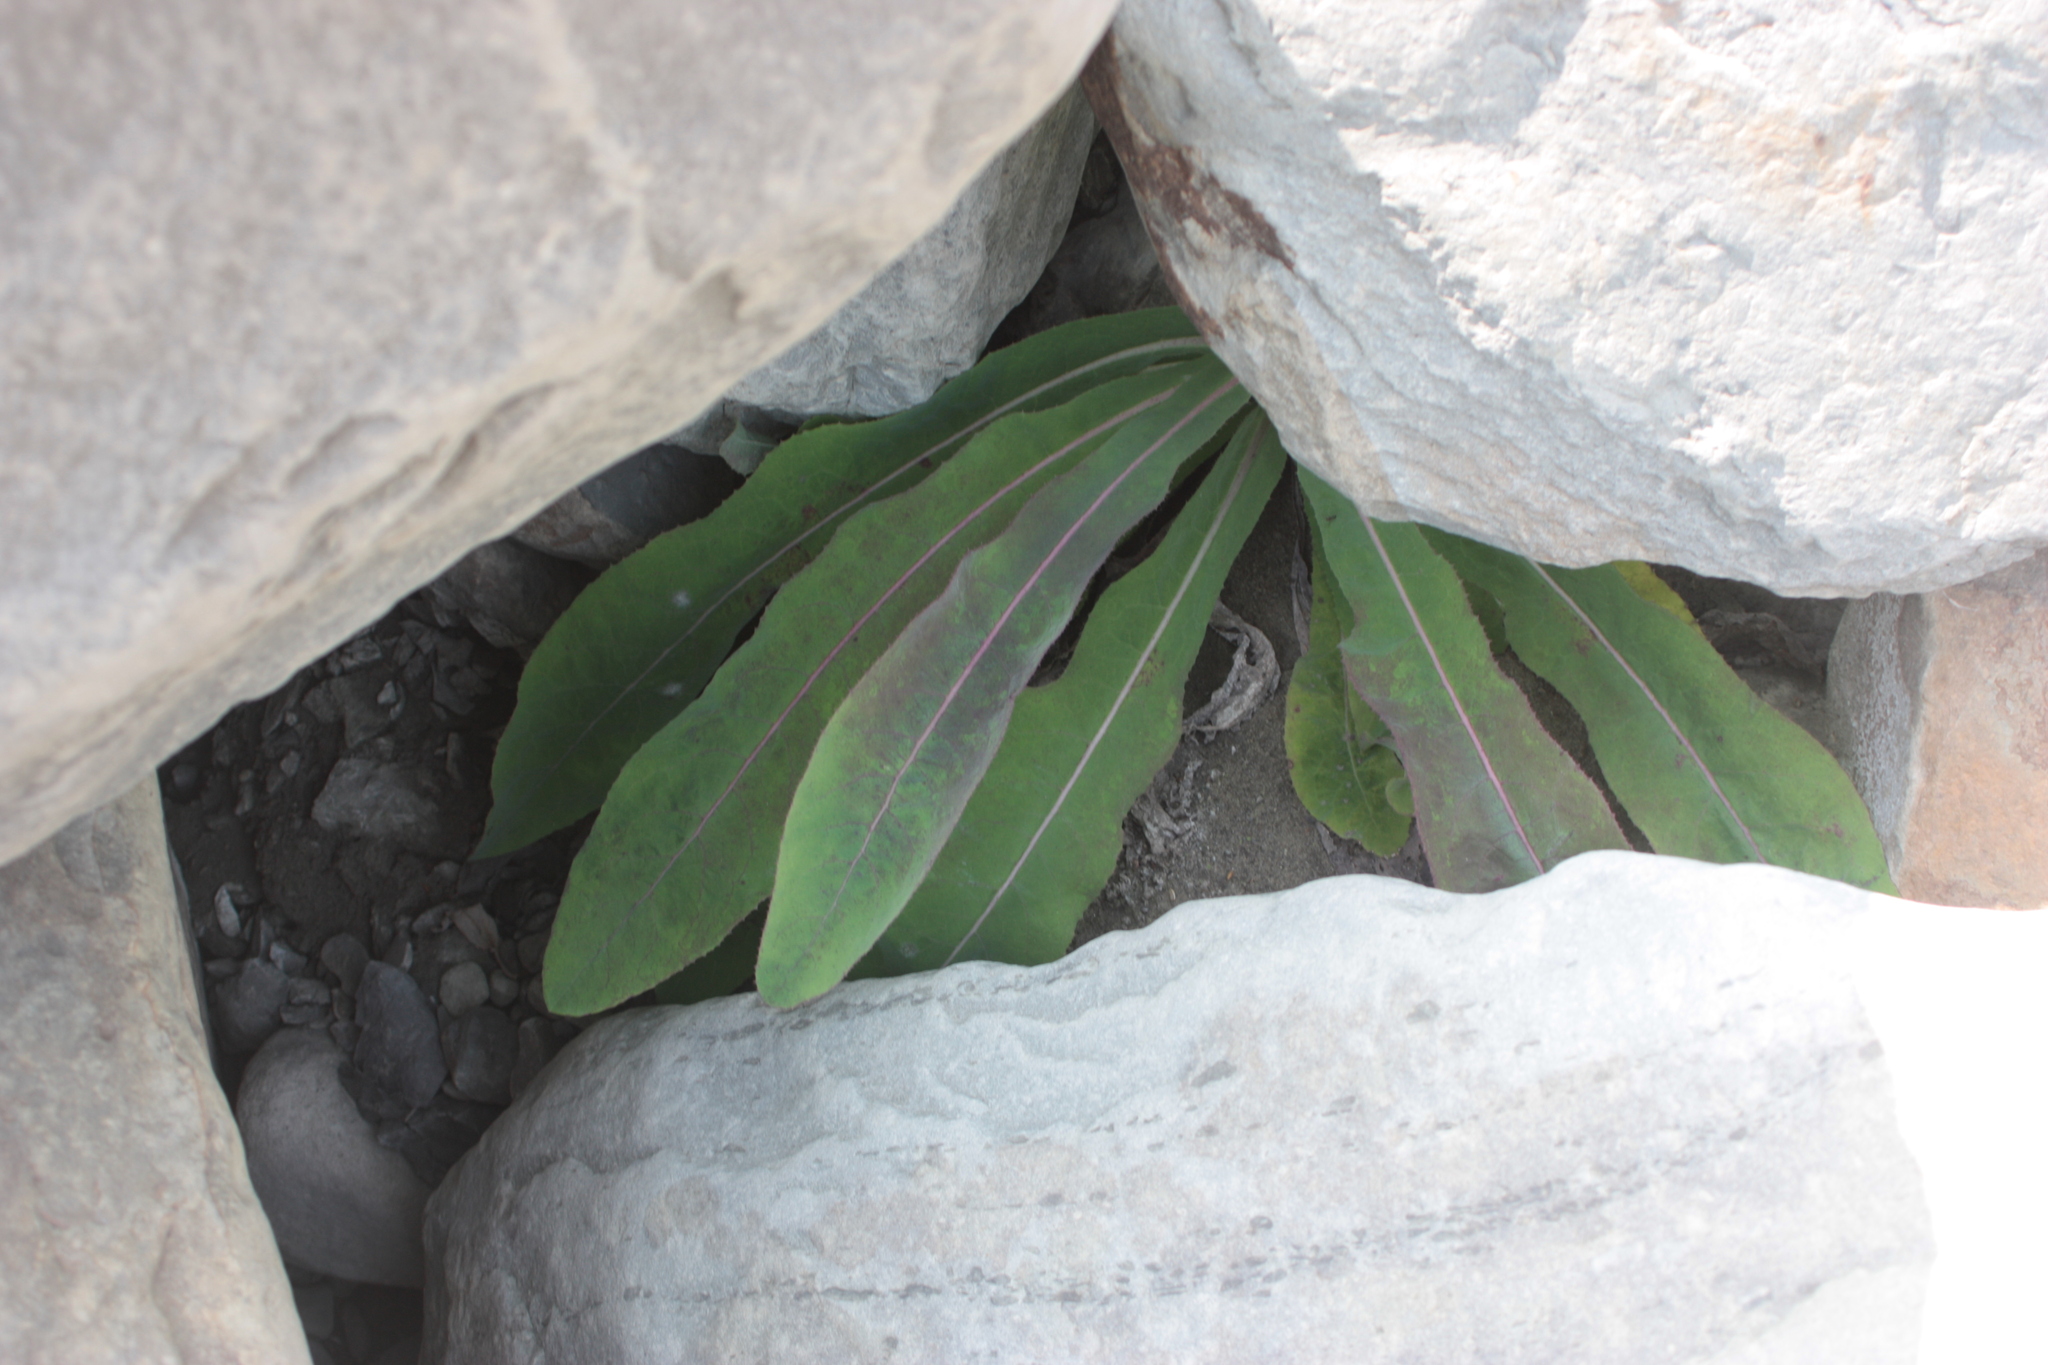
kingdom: Plantae
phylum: Tracheophyta
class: Magnoliopsida
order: Asterales
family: Asteraceae
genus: Sonchus
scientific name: Sonchus arvensis
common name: Perennial sow-thistle
